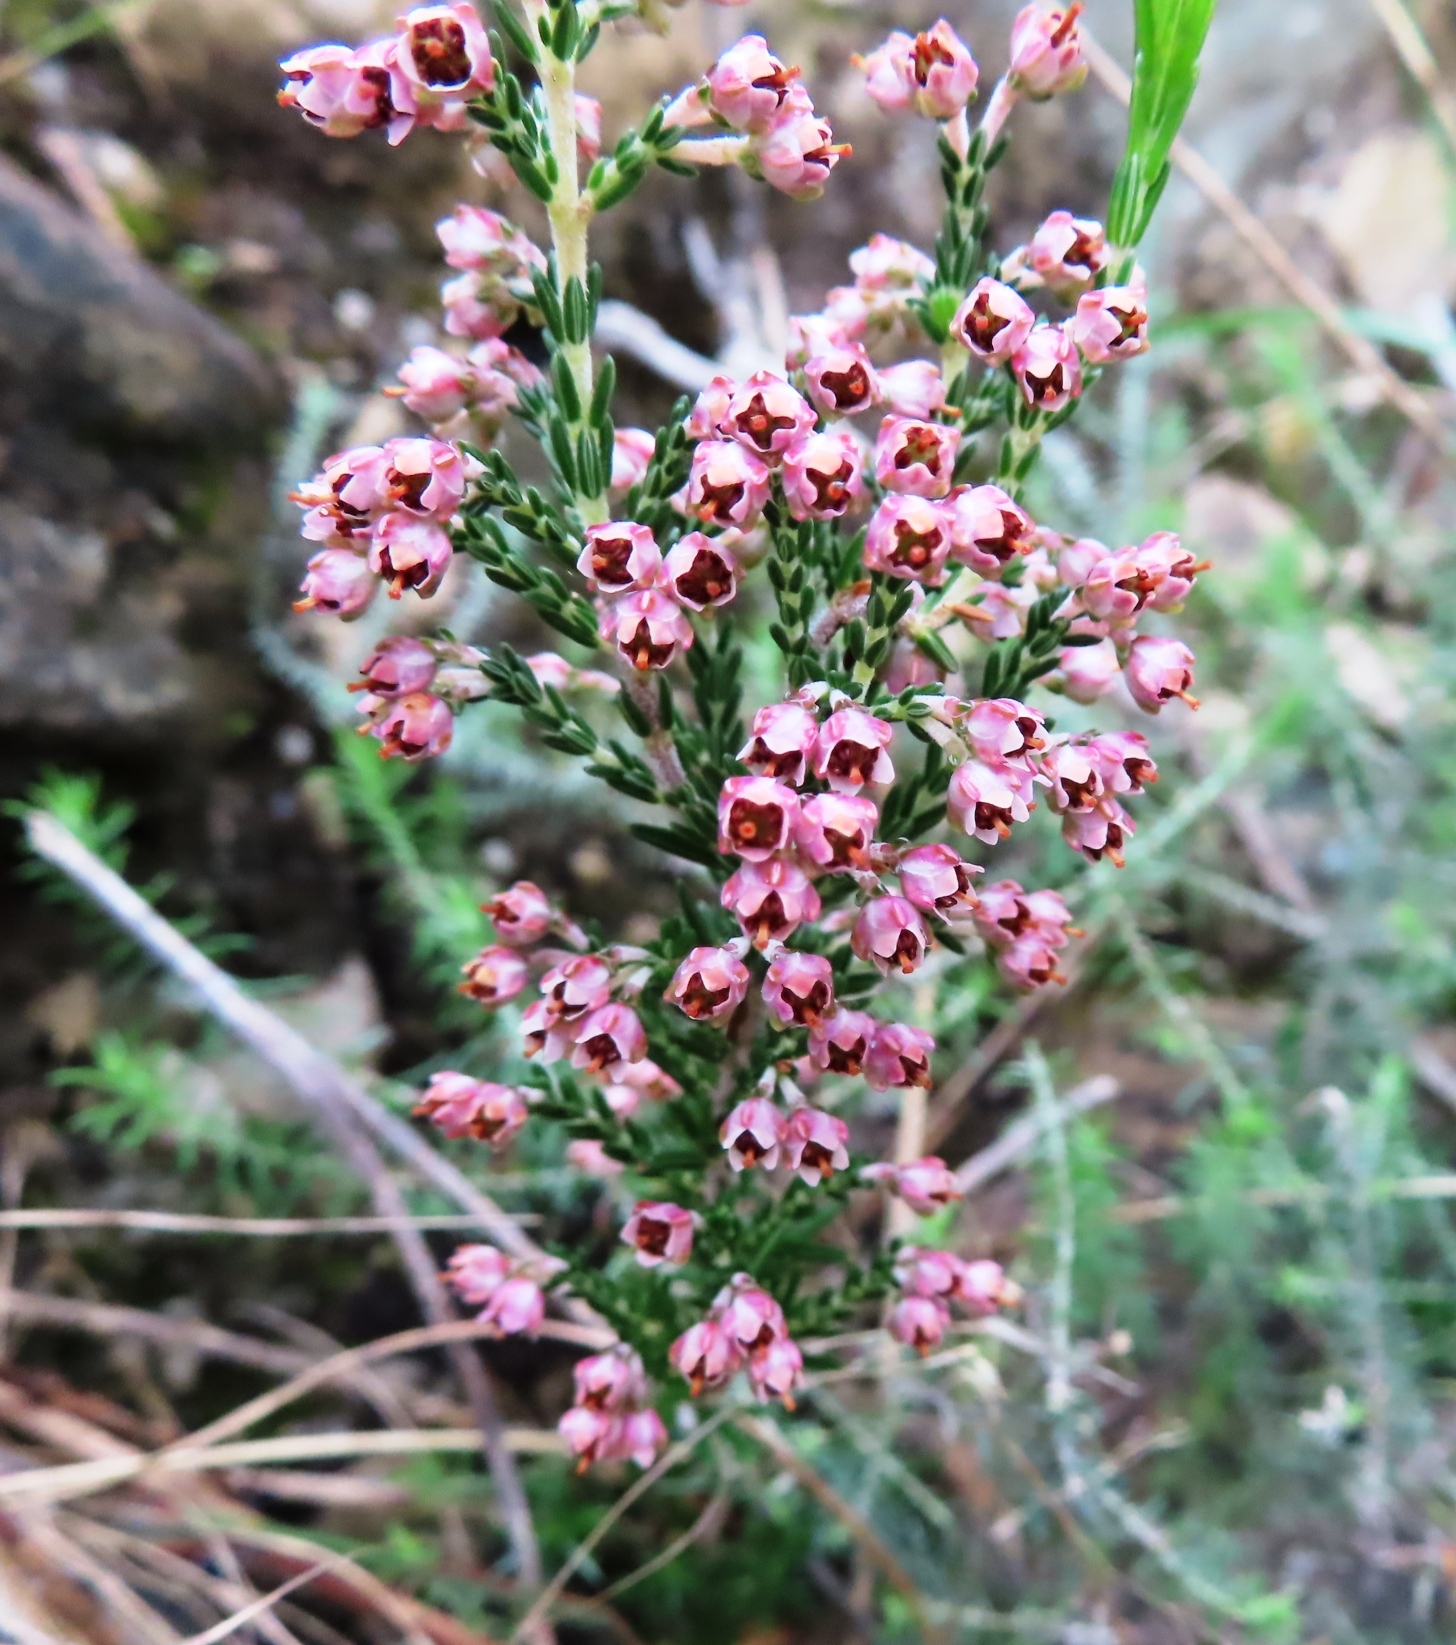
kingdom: Plantae
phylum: Tracheophyta
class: Magnoliopsida
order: Ericales
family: Ericaceae
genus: Erica
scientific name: Erica lucida
